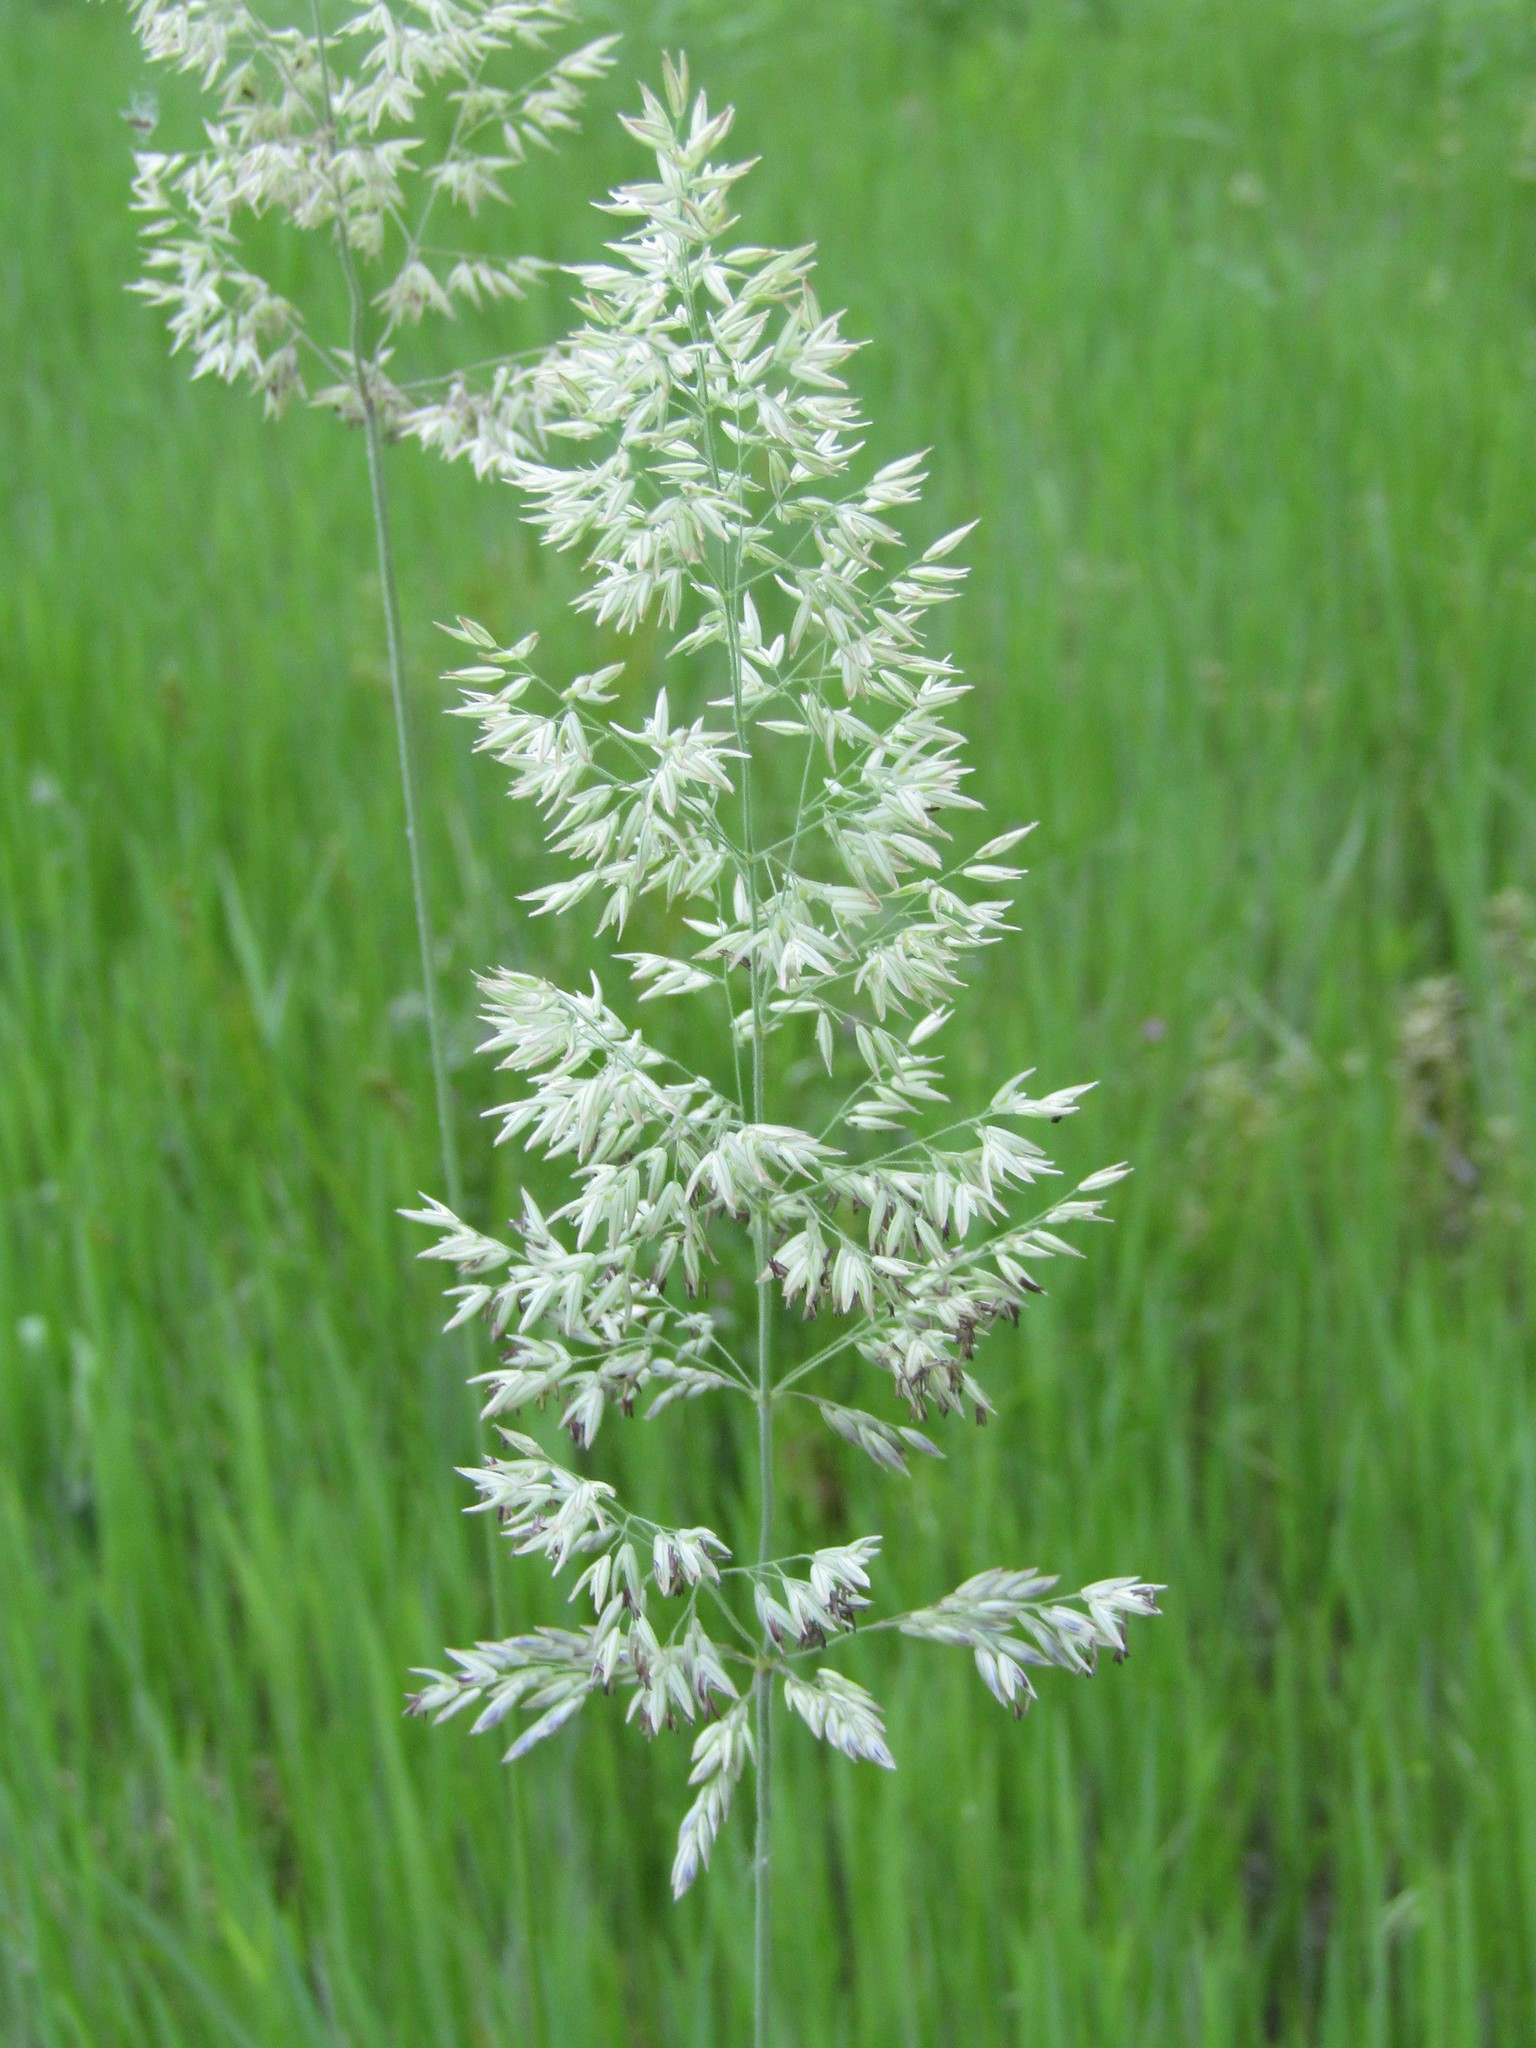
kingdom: Plantae
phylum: Tracheophyta
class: Liliopsida
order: Poales
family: Poaceae
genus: Holcus
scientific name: Holcus lanatus
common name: Yorkshire-fog
